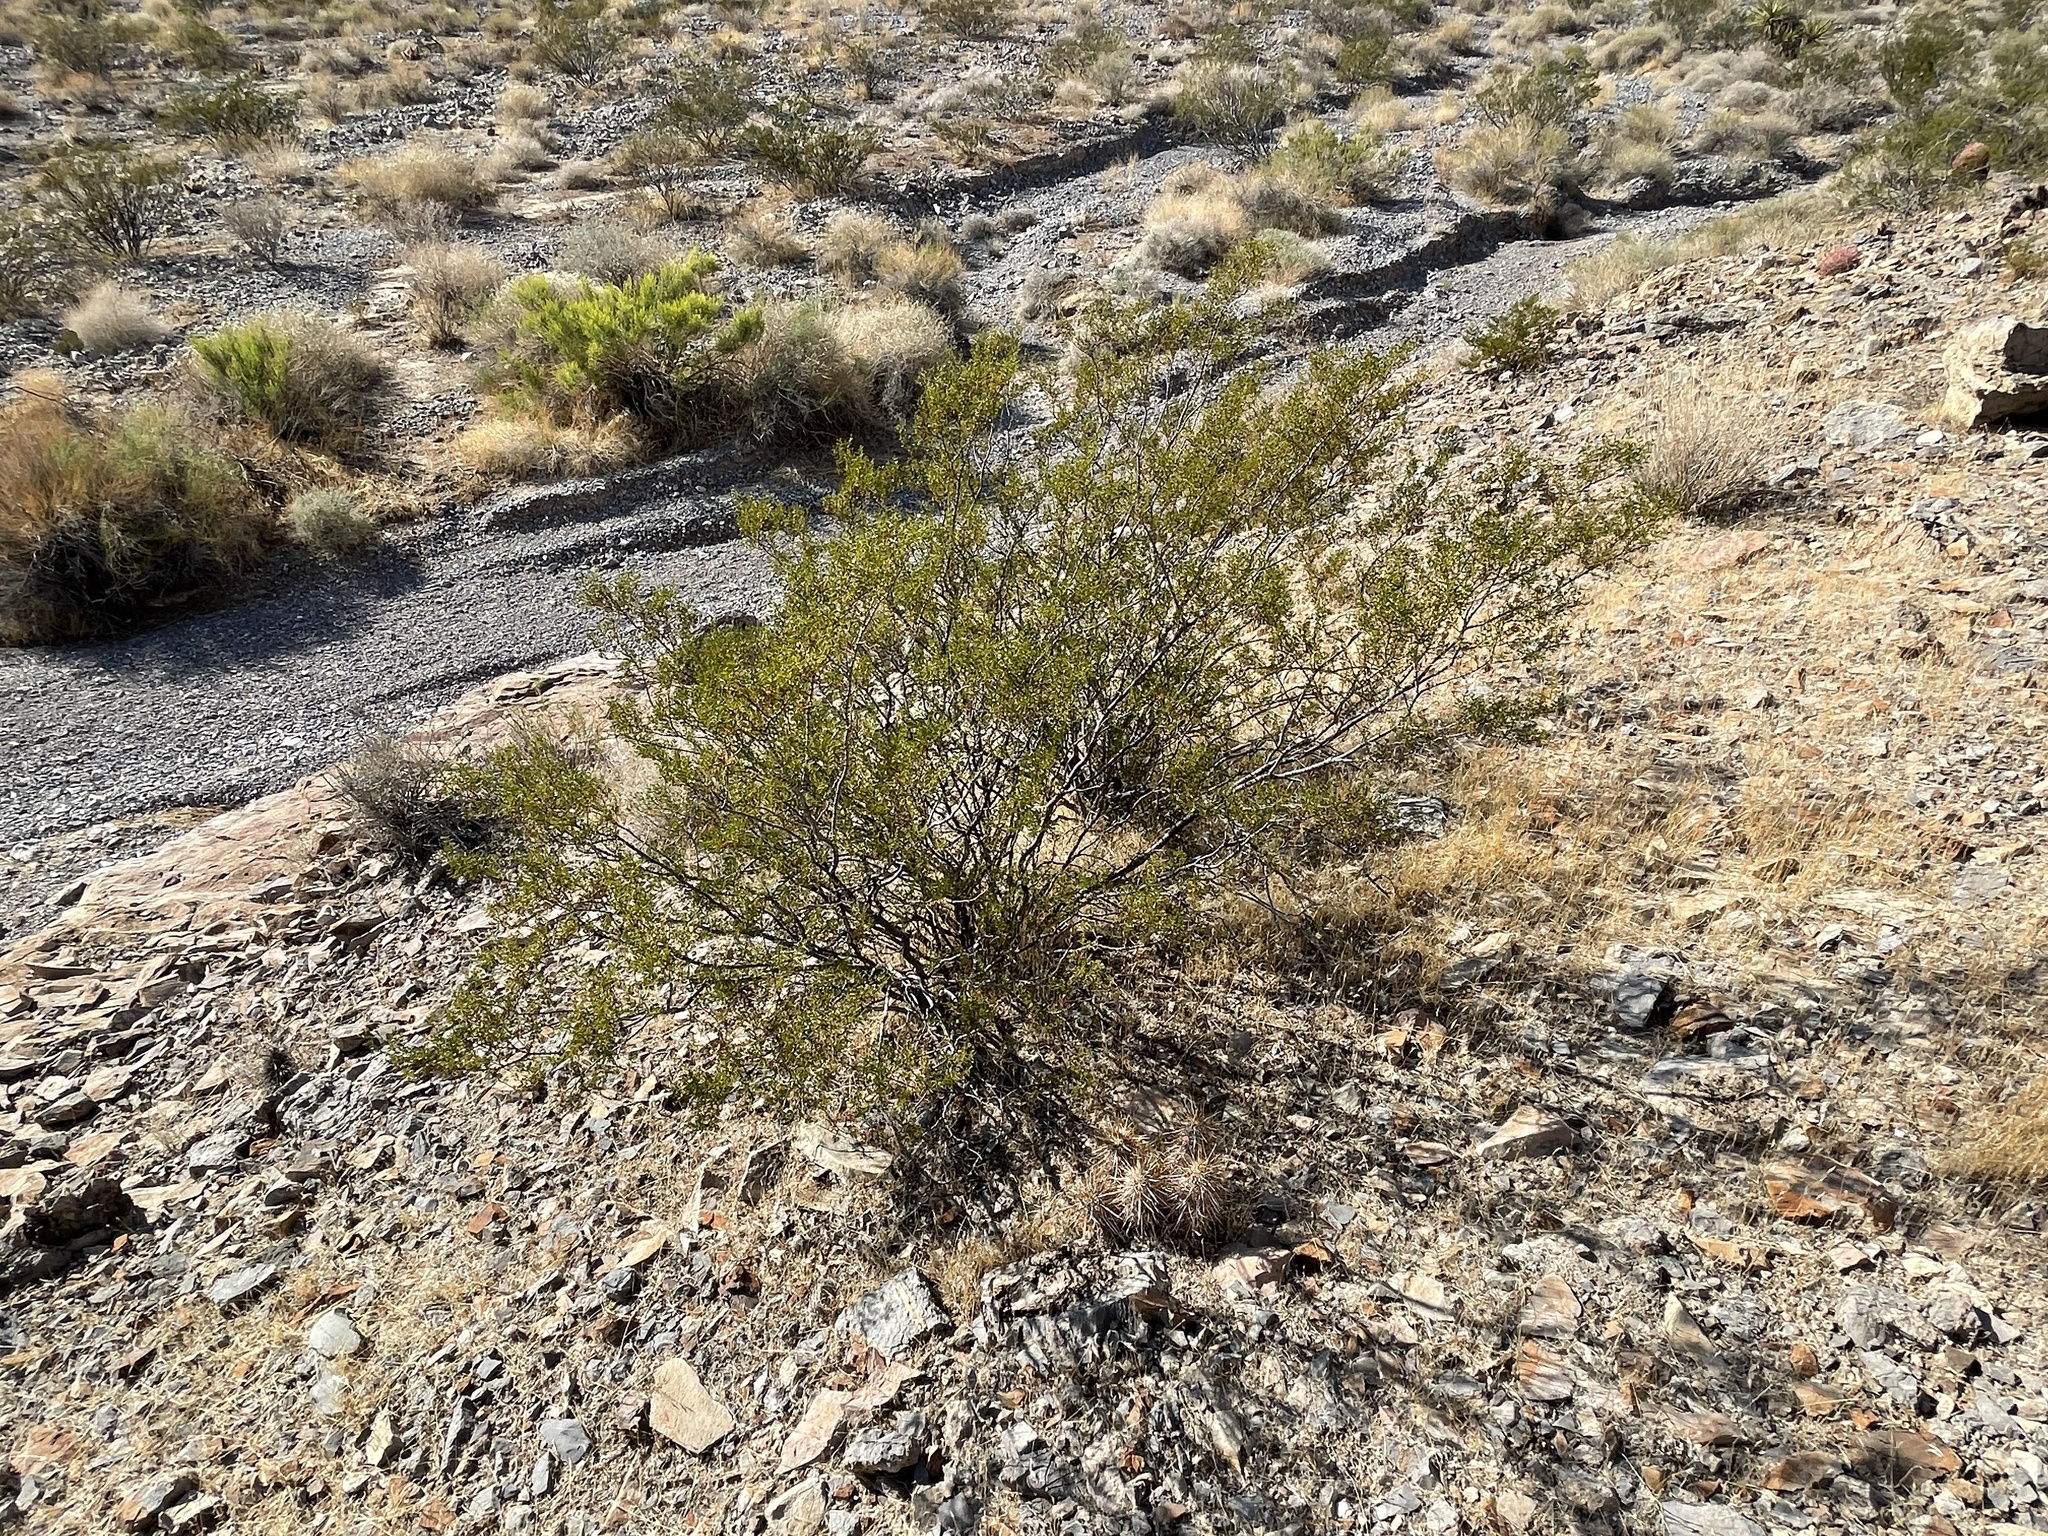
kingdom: Plantae
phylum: Tracheophyta
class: Magnoliopsida
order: Zygophyllales
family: Zygophyllaceae
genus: Larrea
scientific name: Larrea tridentata
